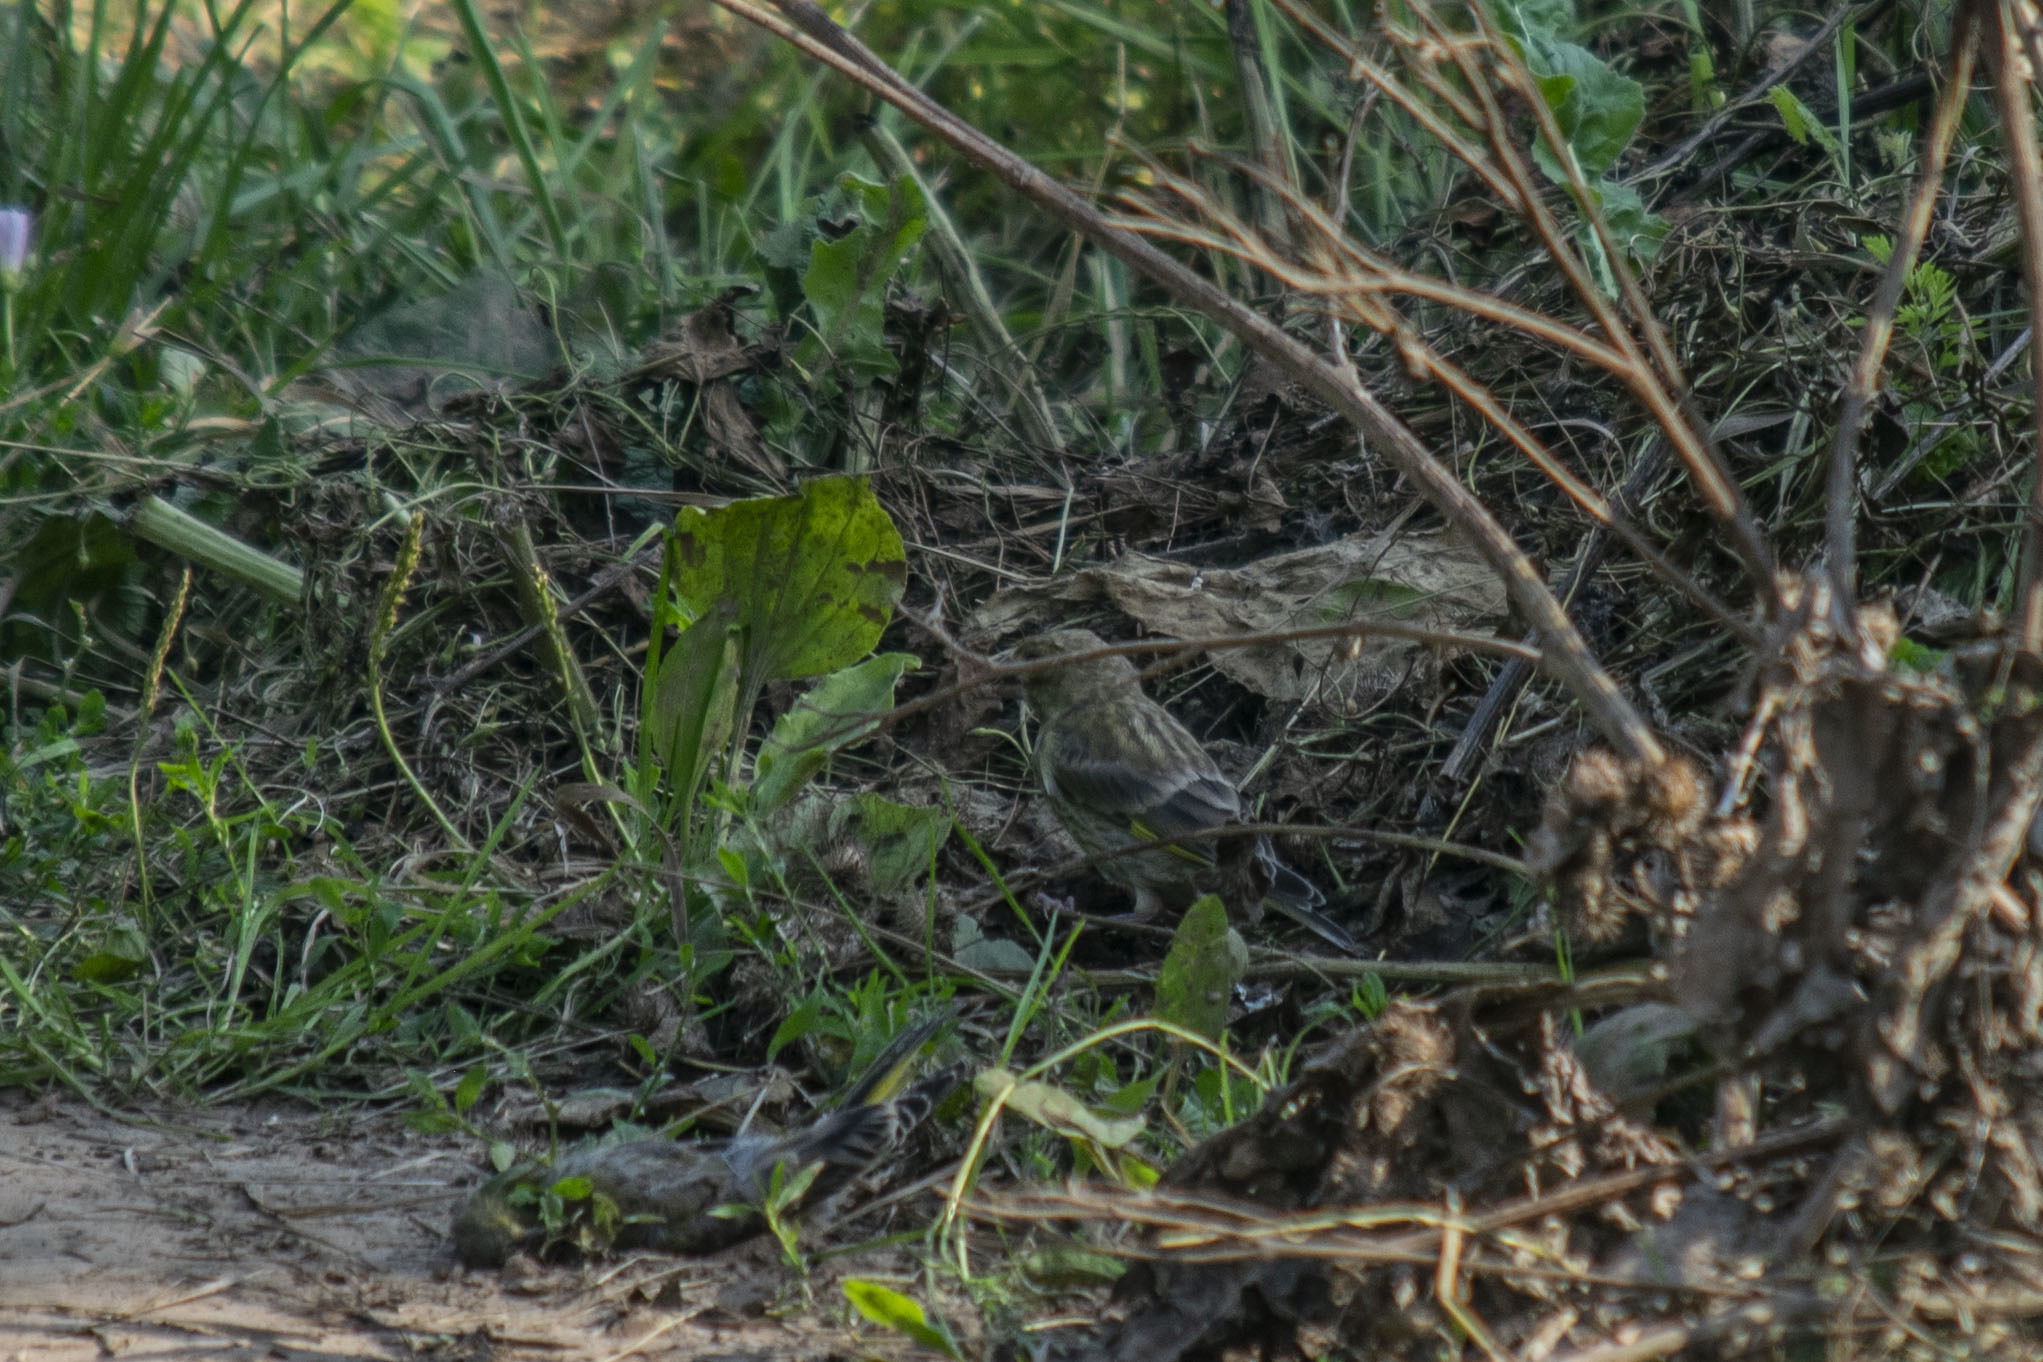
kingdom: Plantae
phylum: Tracheophyta
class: Liliopsida
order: Poales
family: Poaceae
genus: Chloris
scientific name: Chloris chloris
